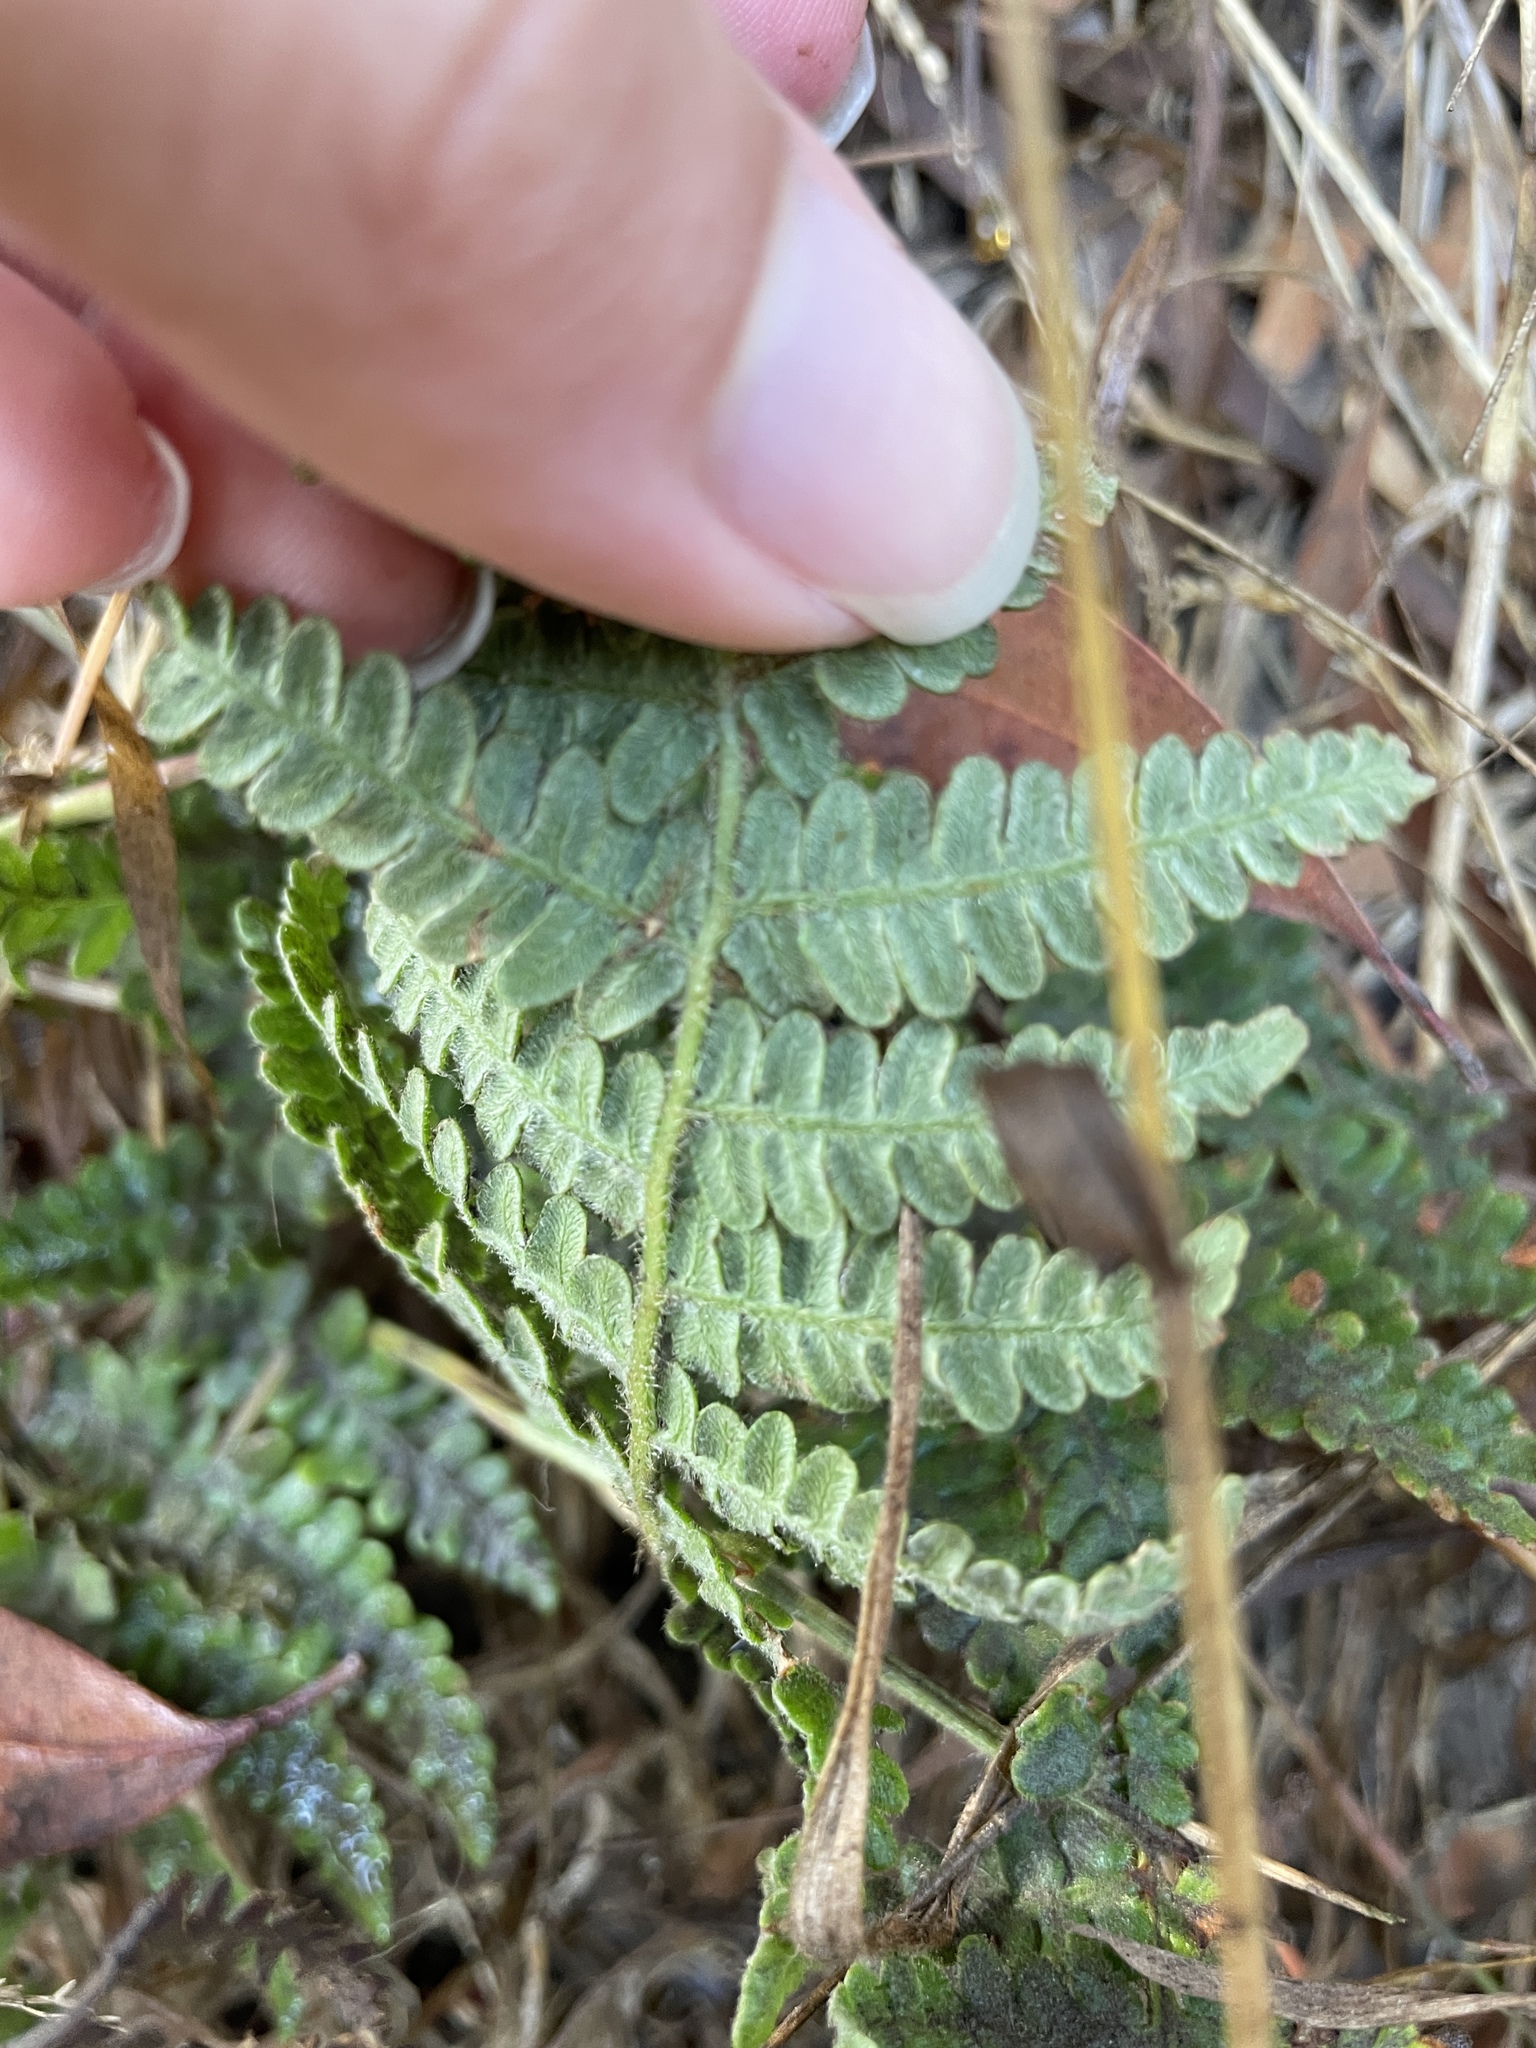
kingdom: Plantae
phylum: Tracheophyta
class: Polypodiopsida
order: Polypodiales
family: Dennstaedtiaceae
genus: Pteridium
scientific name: Pteridium aquilinum
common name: Bracken
